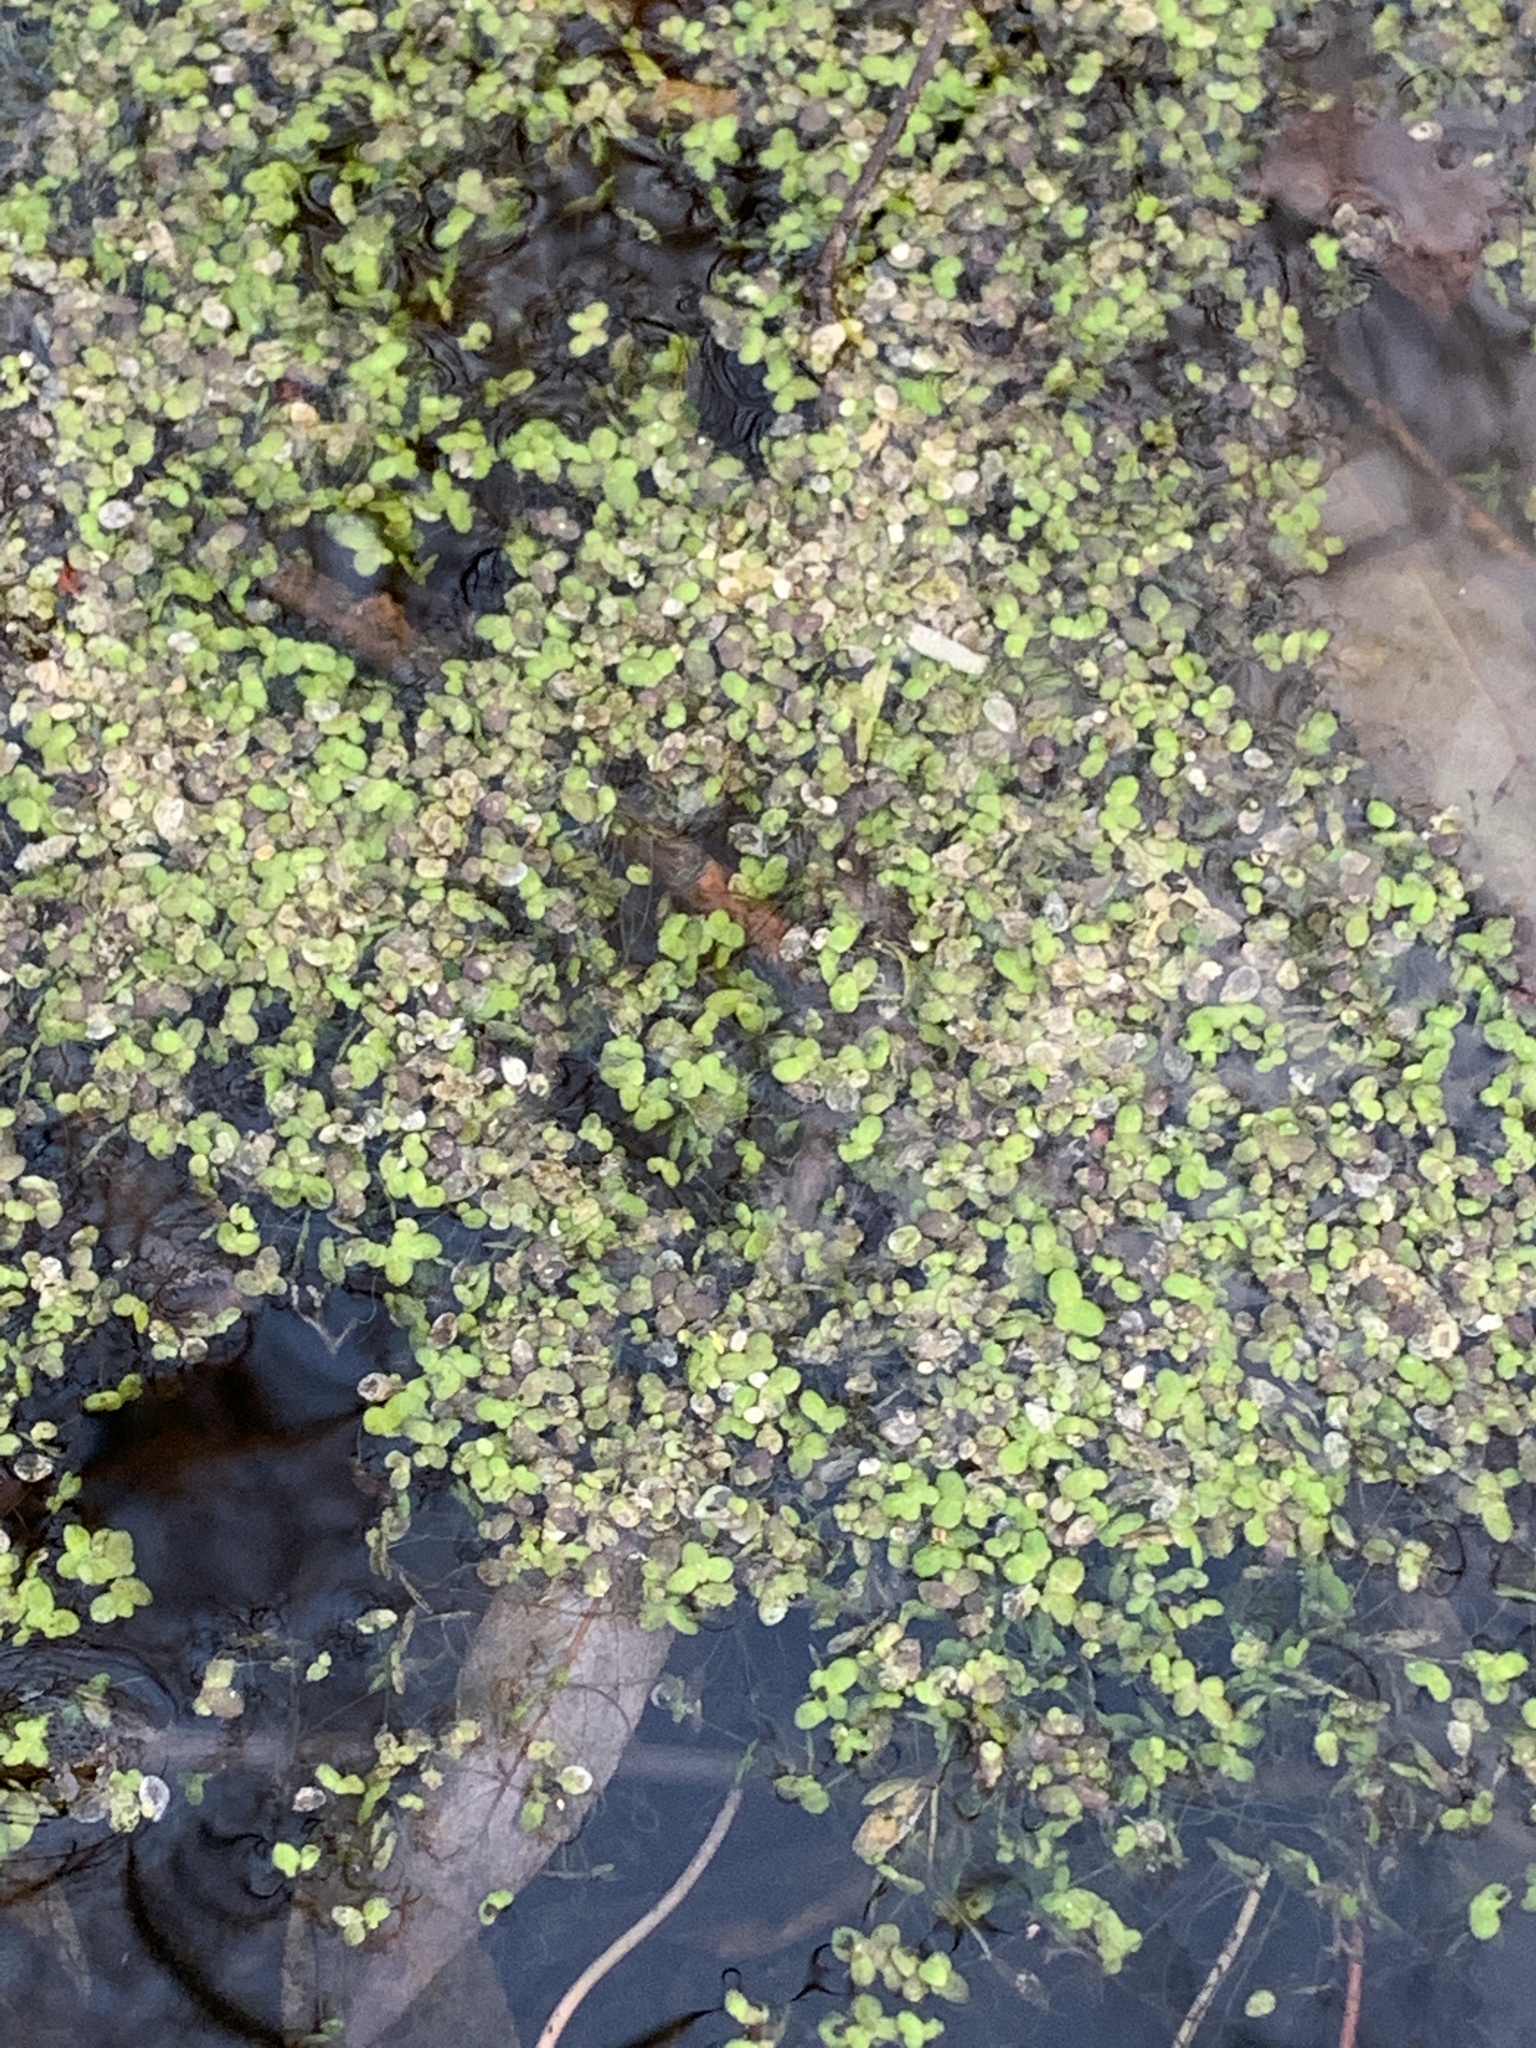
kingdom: Plantae
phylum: Tracheophyta
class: Liliopsida
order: Alismatales
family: Araceae
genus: Lemna
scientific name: Lemna minor
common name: Common duckweed
